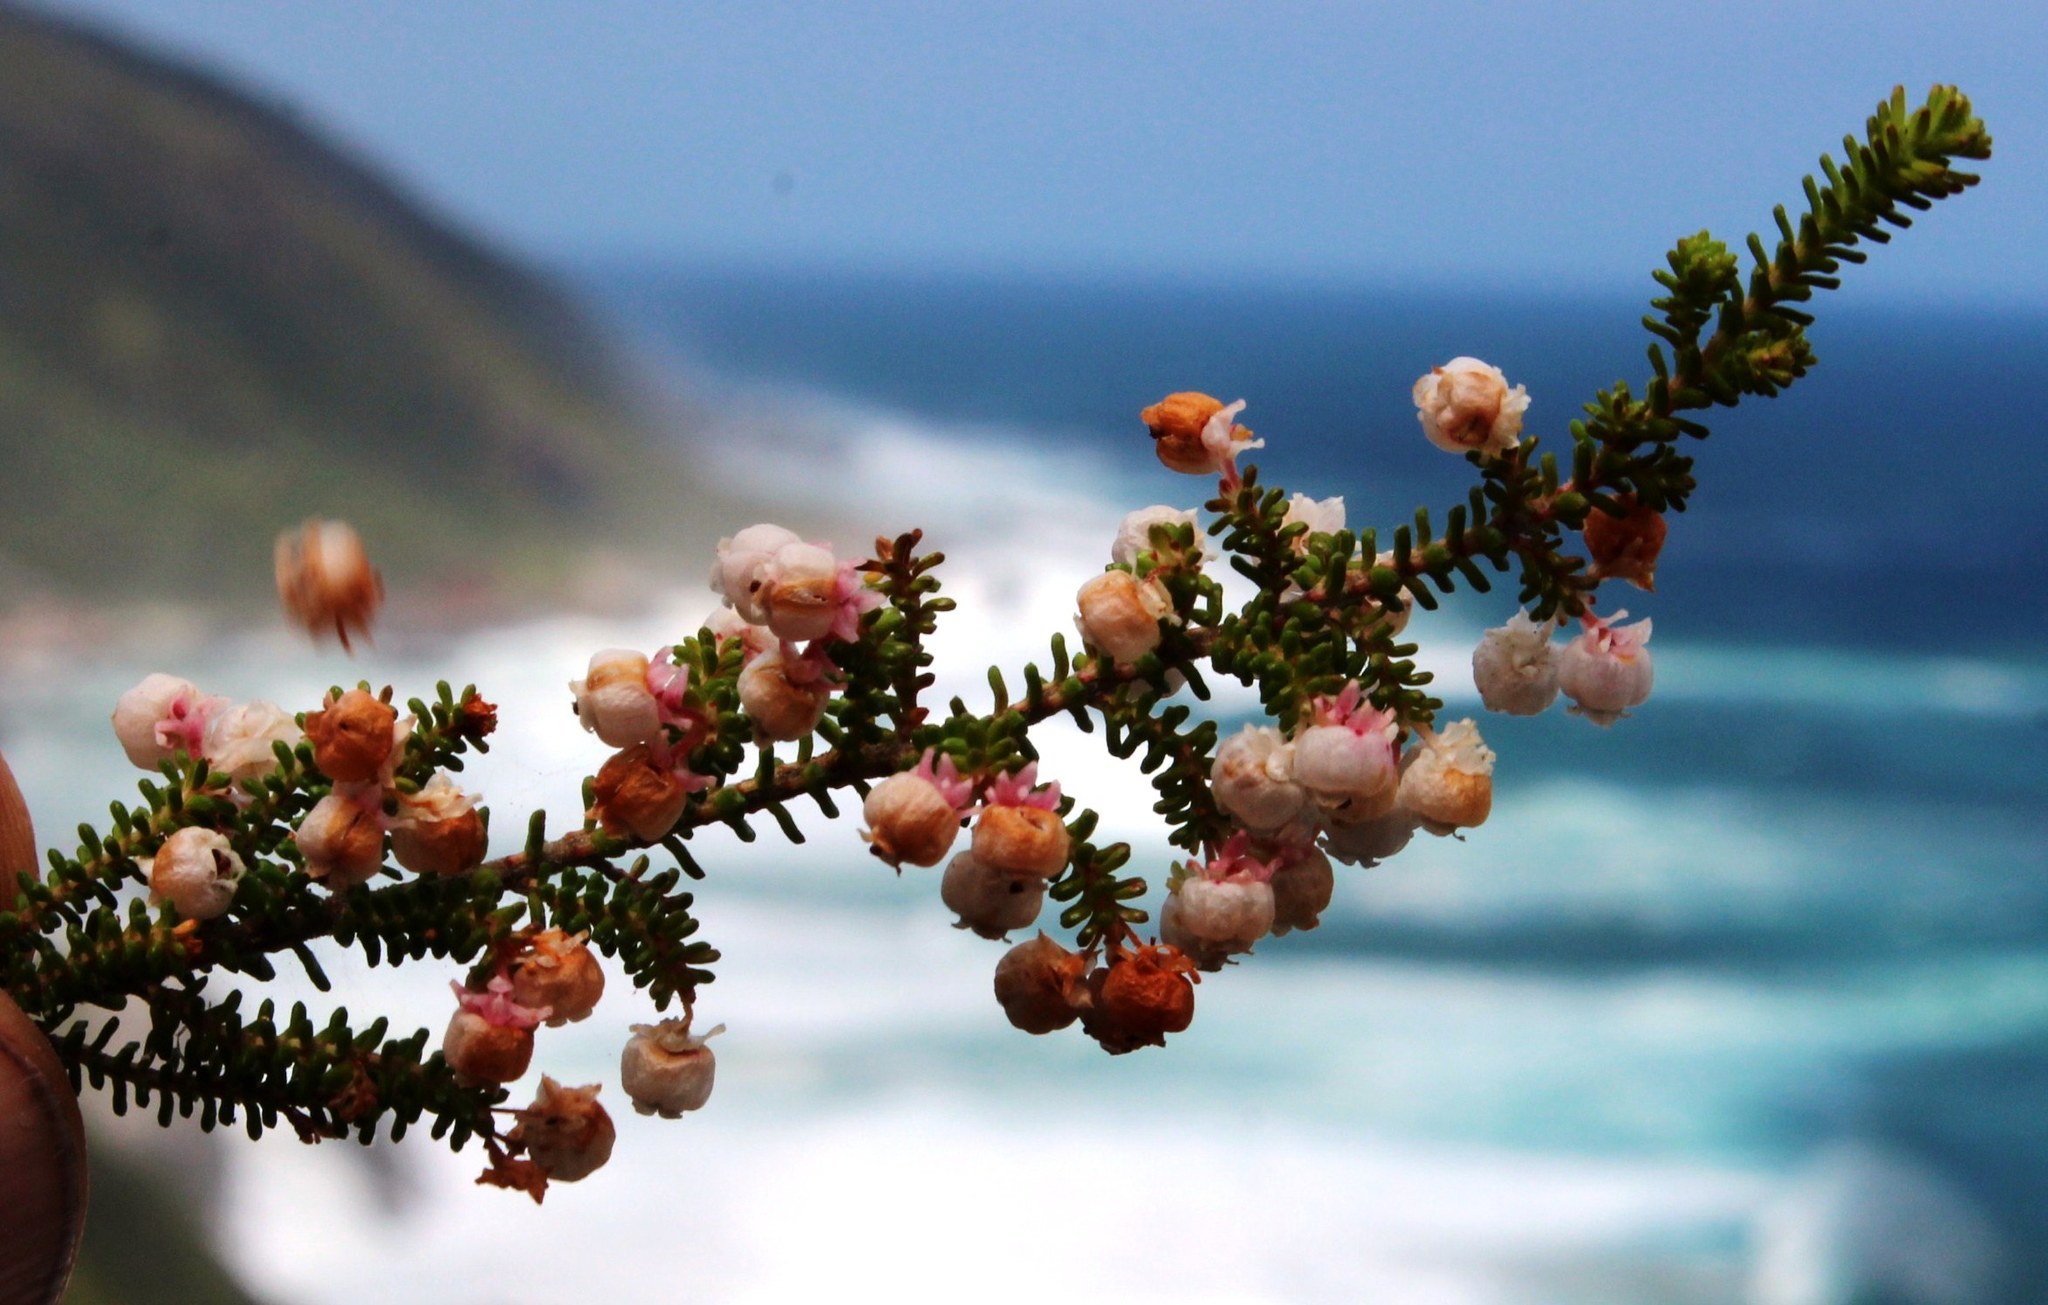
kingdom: Plantae
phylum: Tracheophyta
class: Magnoliopsida
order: Ericales
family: Ericaceae
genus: Erica
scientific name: Erica formosa
